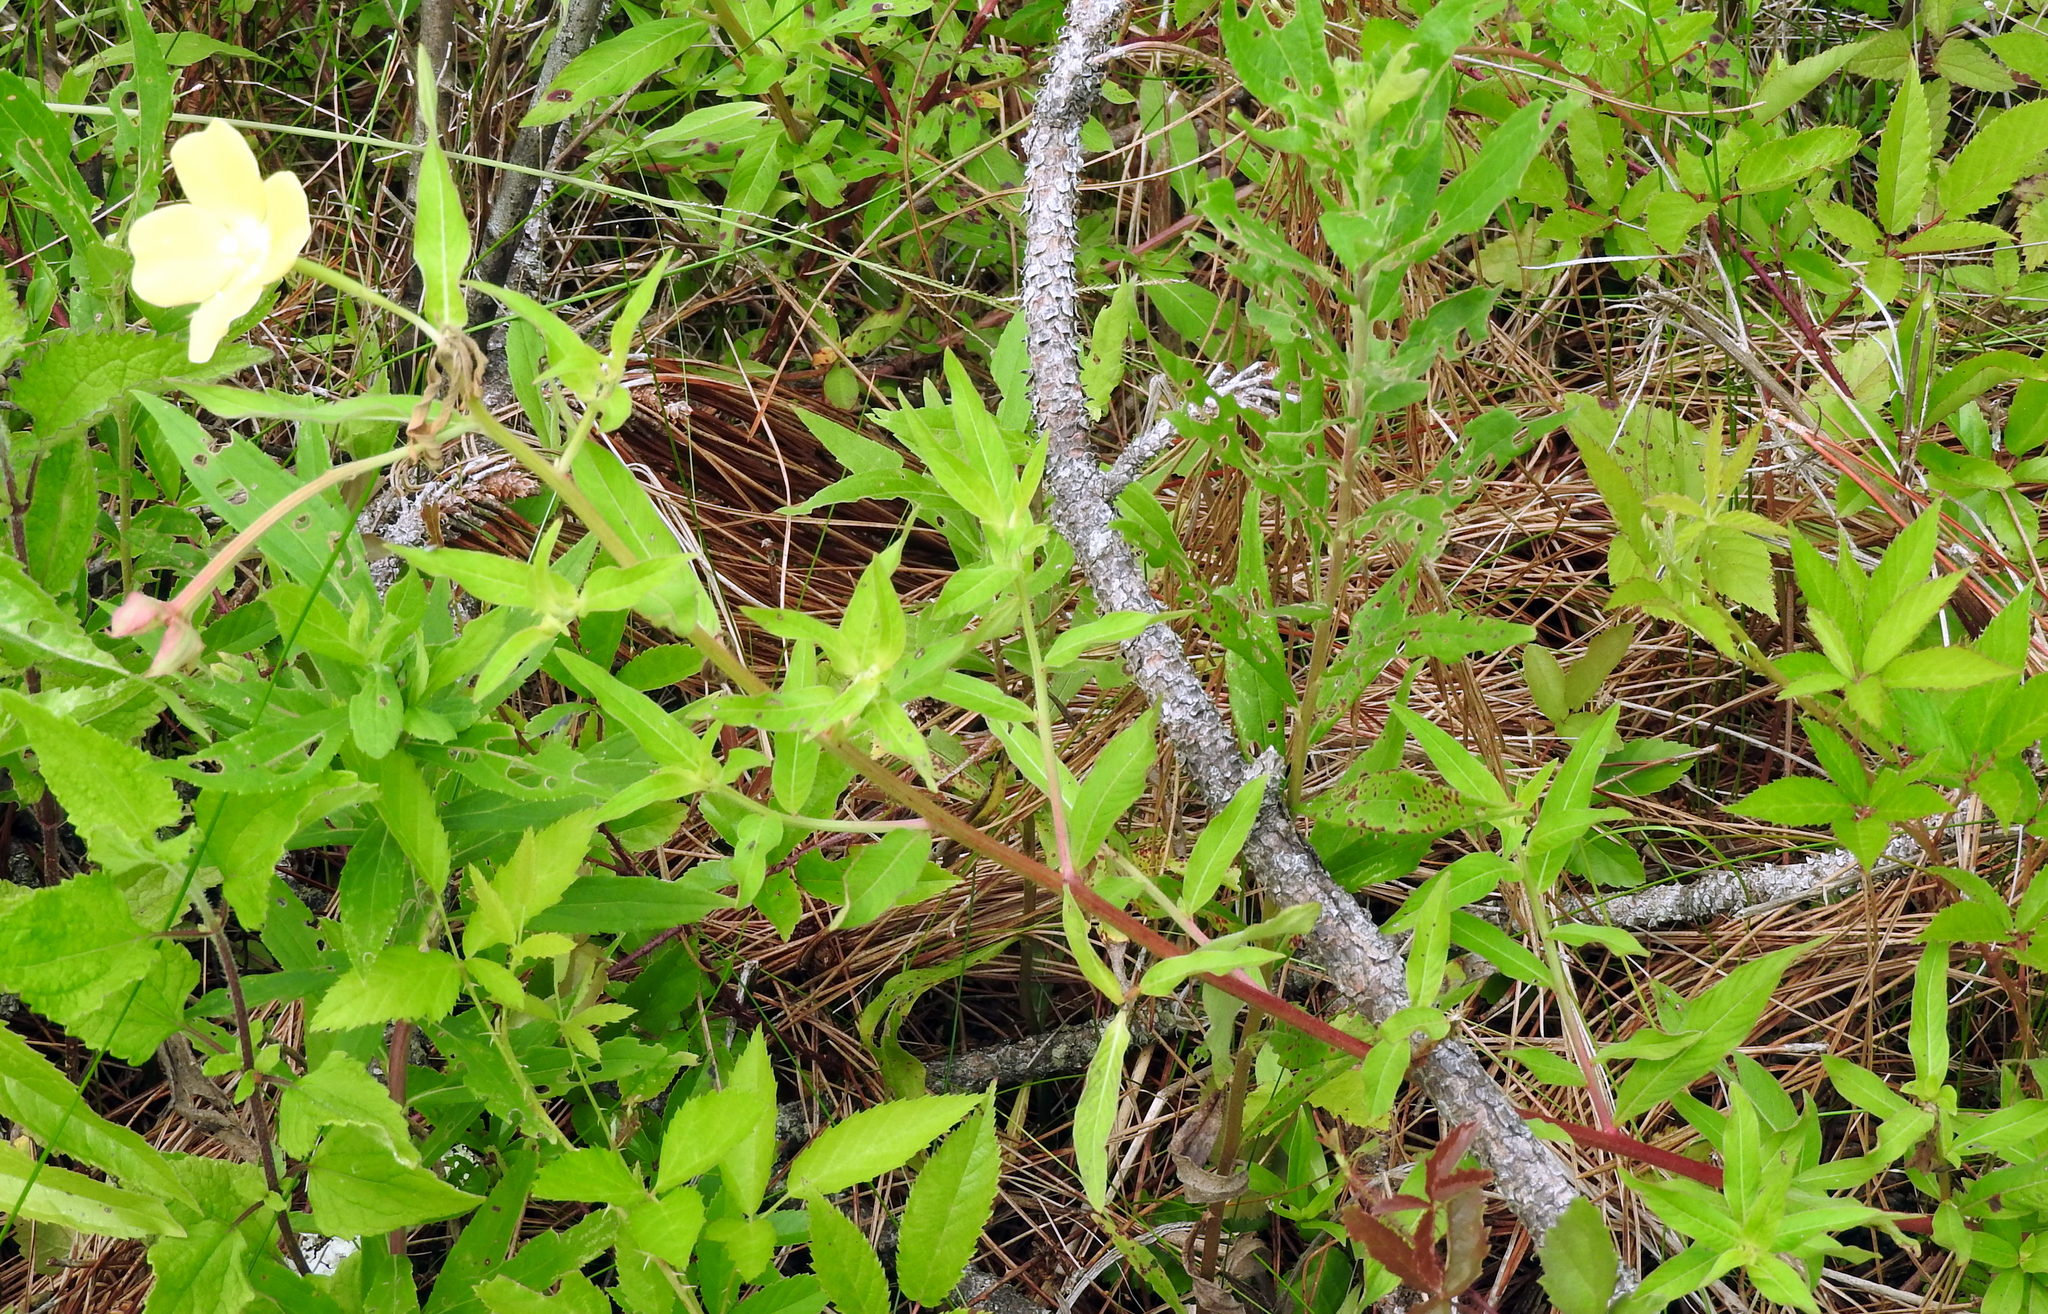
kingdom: Plantae
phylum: Tracheophyta
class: Magnoliopsida
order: Myrtales
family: Onagraceae
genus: Ludwigia
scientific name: Ludwigia octovalvis
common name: Water-primrose
